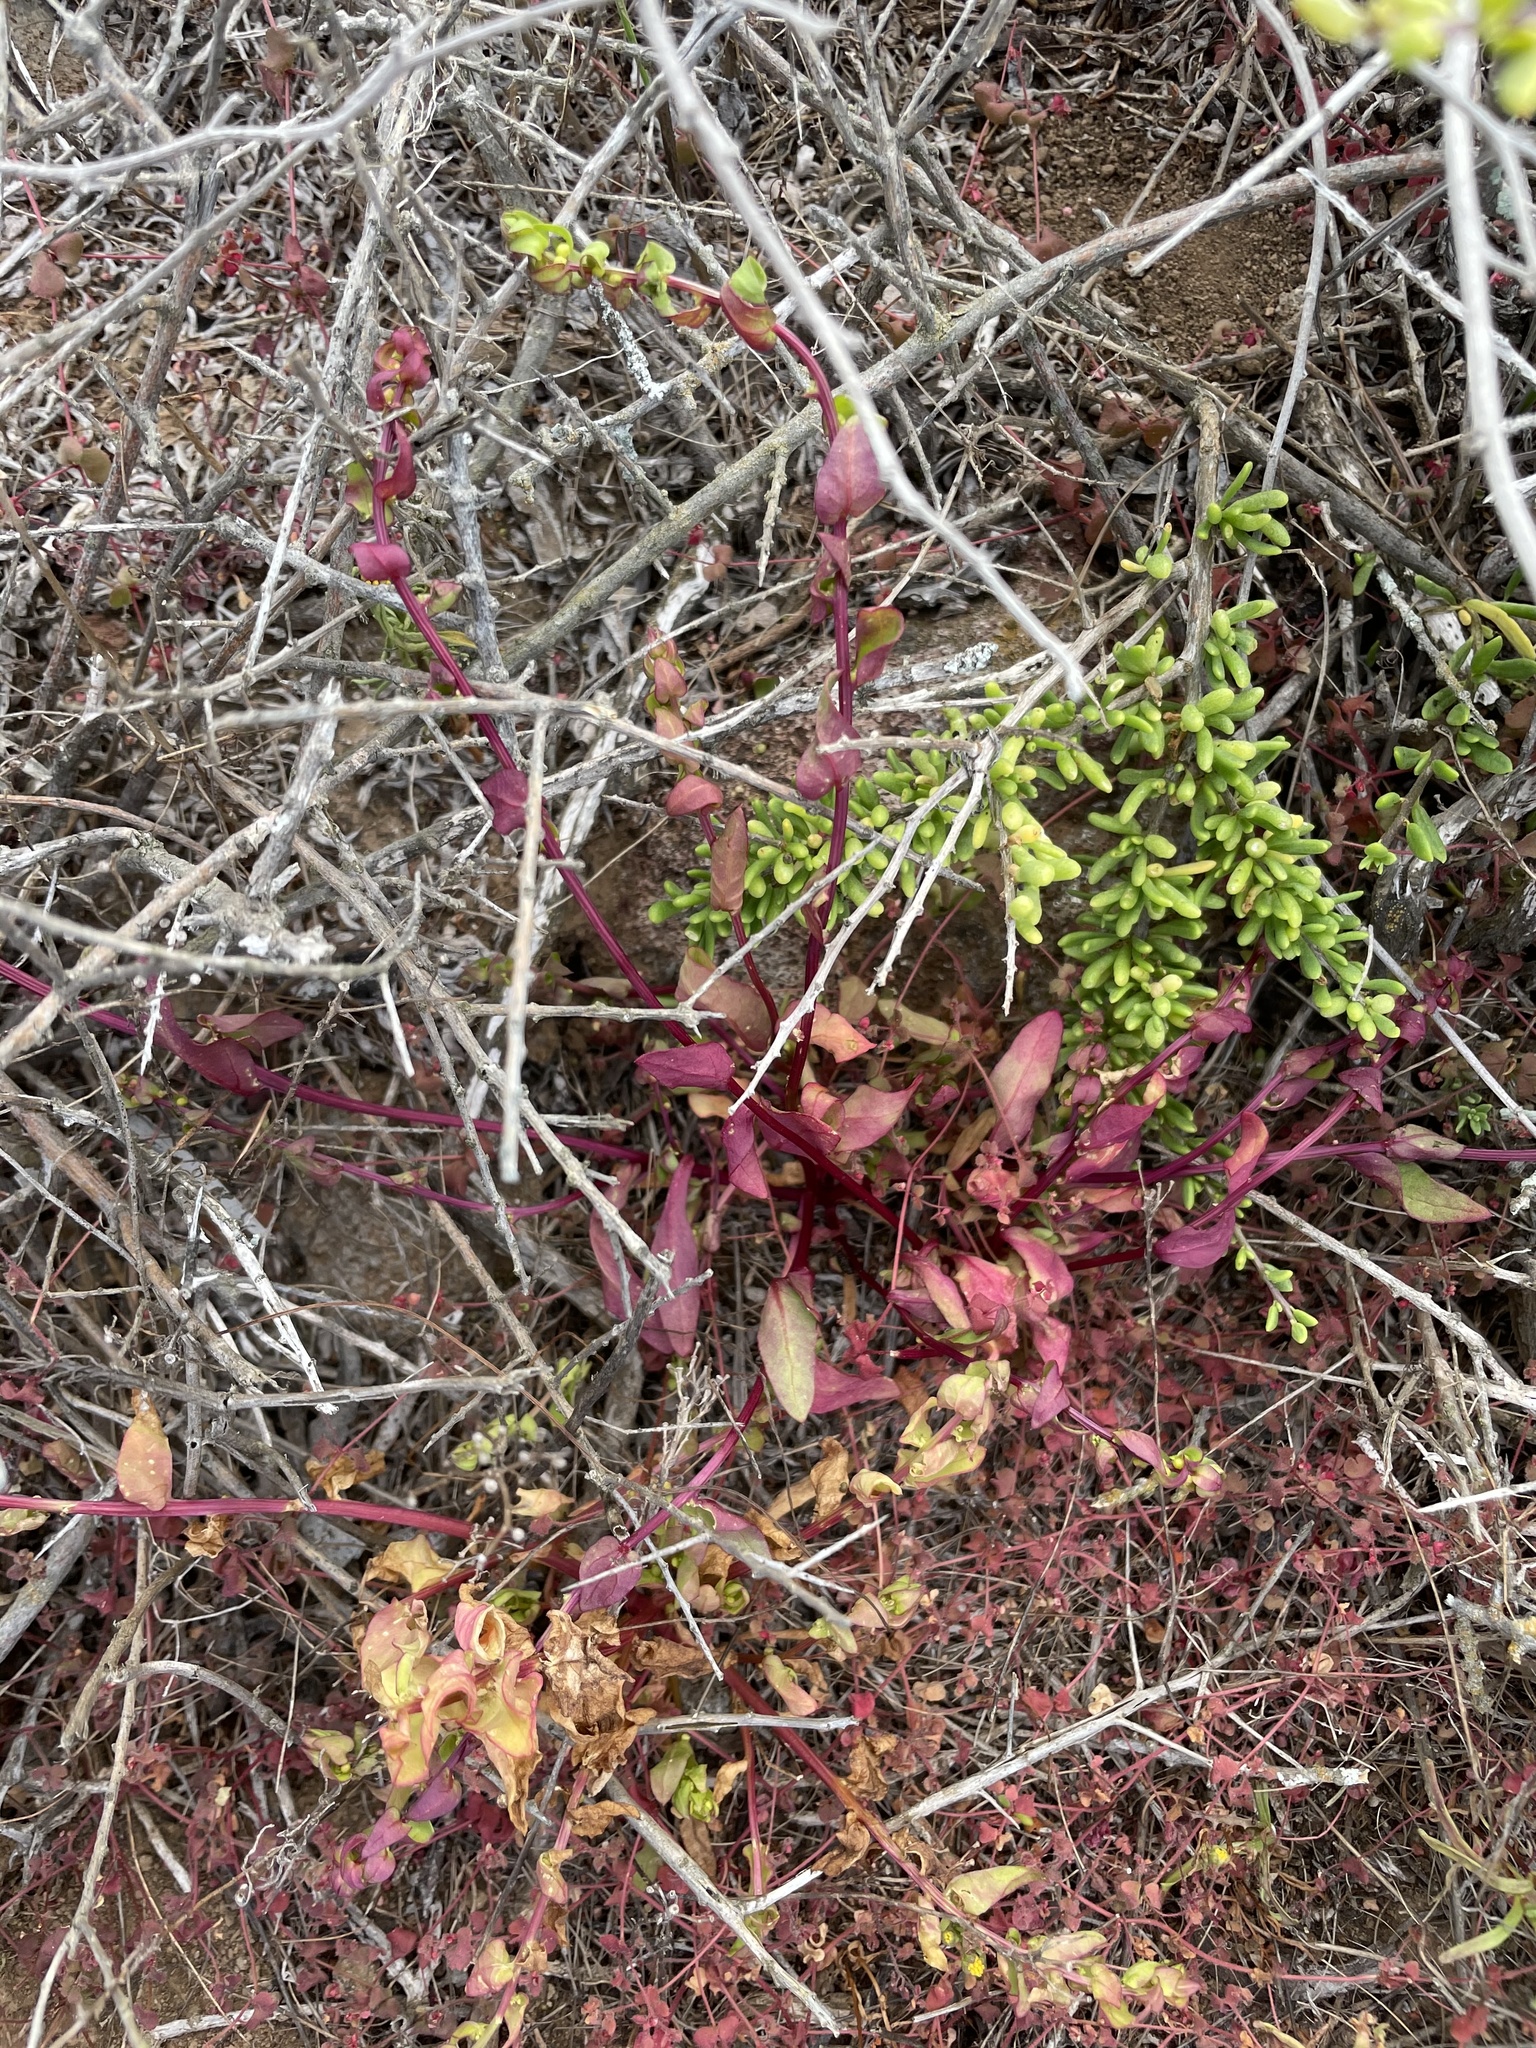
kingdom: Plantae
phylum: Tracheophyta
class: Magnoliopsida
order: Caryophyllales
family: Amaranthaceae
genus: Aphanisma
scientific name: Aphanisma blitoides
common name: Aphanisma
